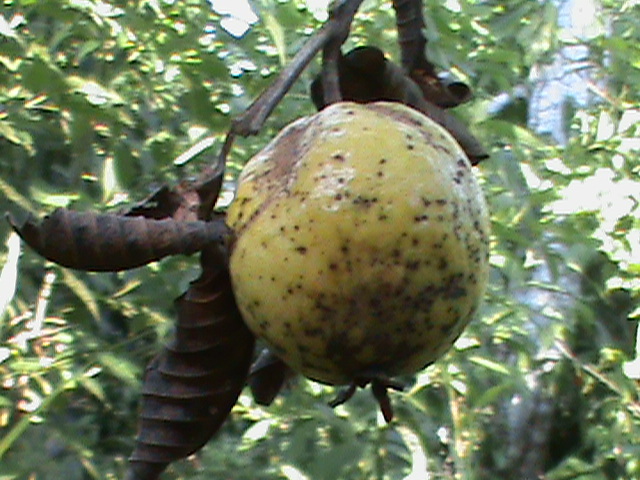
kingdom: Plantae
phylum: Tracheophyta
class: Magnoliopsida
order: Myrtales
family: Myrtaceae
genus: Psidium
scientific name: Psidium guajava
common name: Guava
